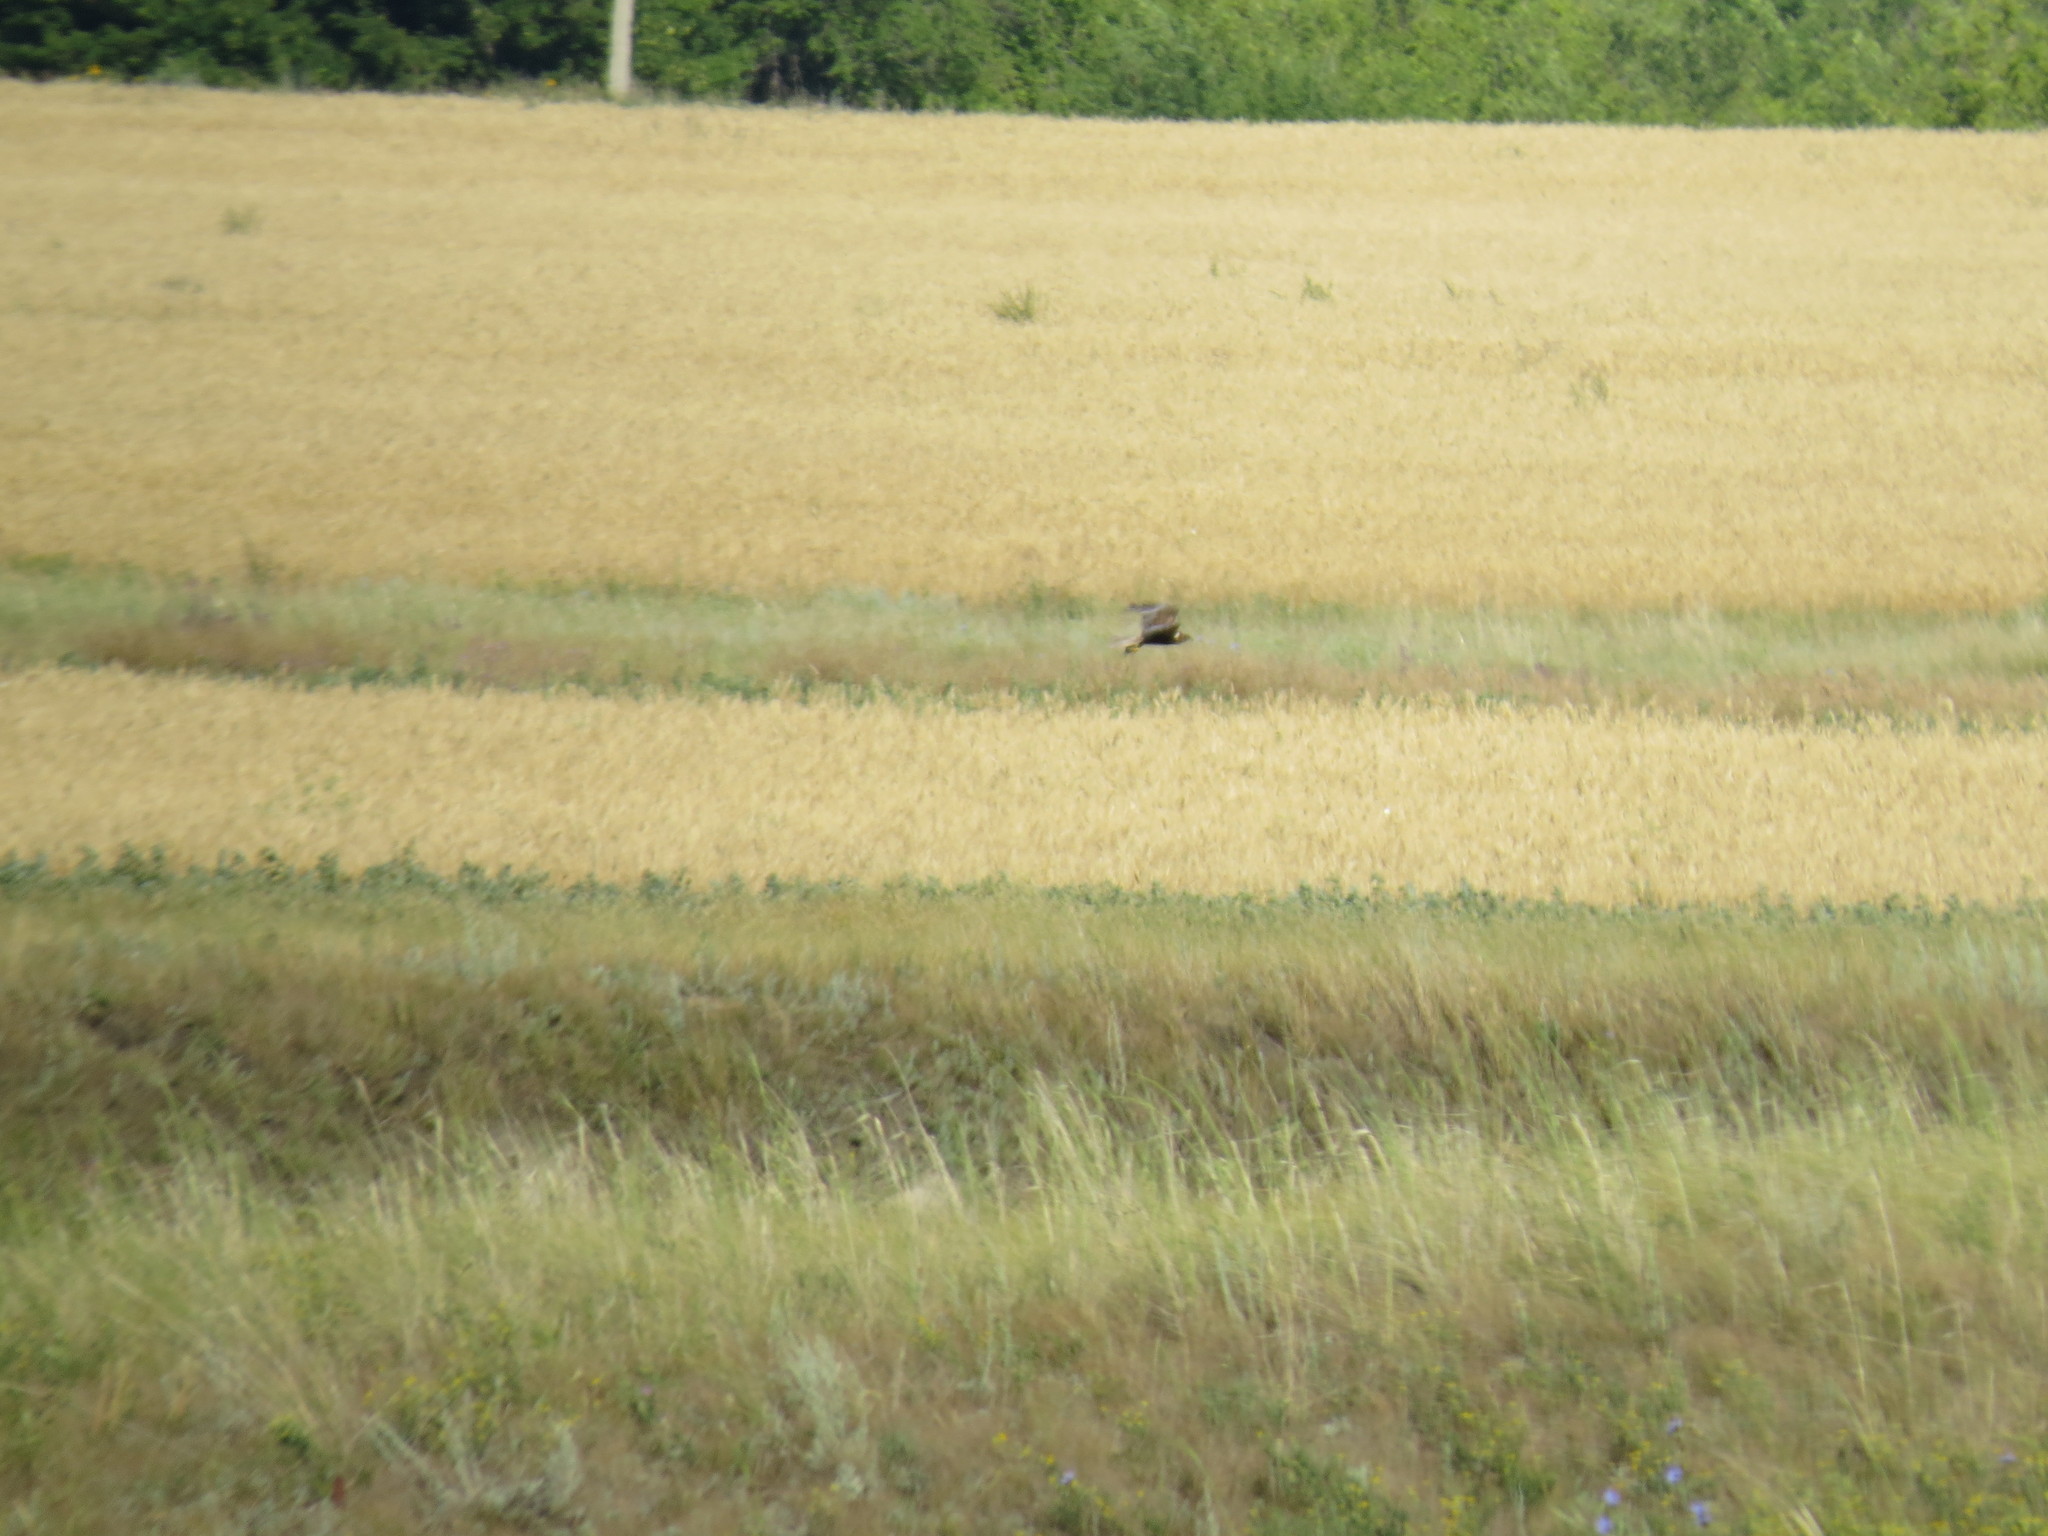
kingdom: Animalia
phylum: Chordata
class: Aves
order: Accipitriformes
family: Accipitridae
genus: Circus
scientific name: Circus aeruginosus
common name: Western marsh harrier
